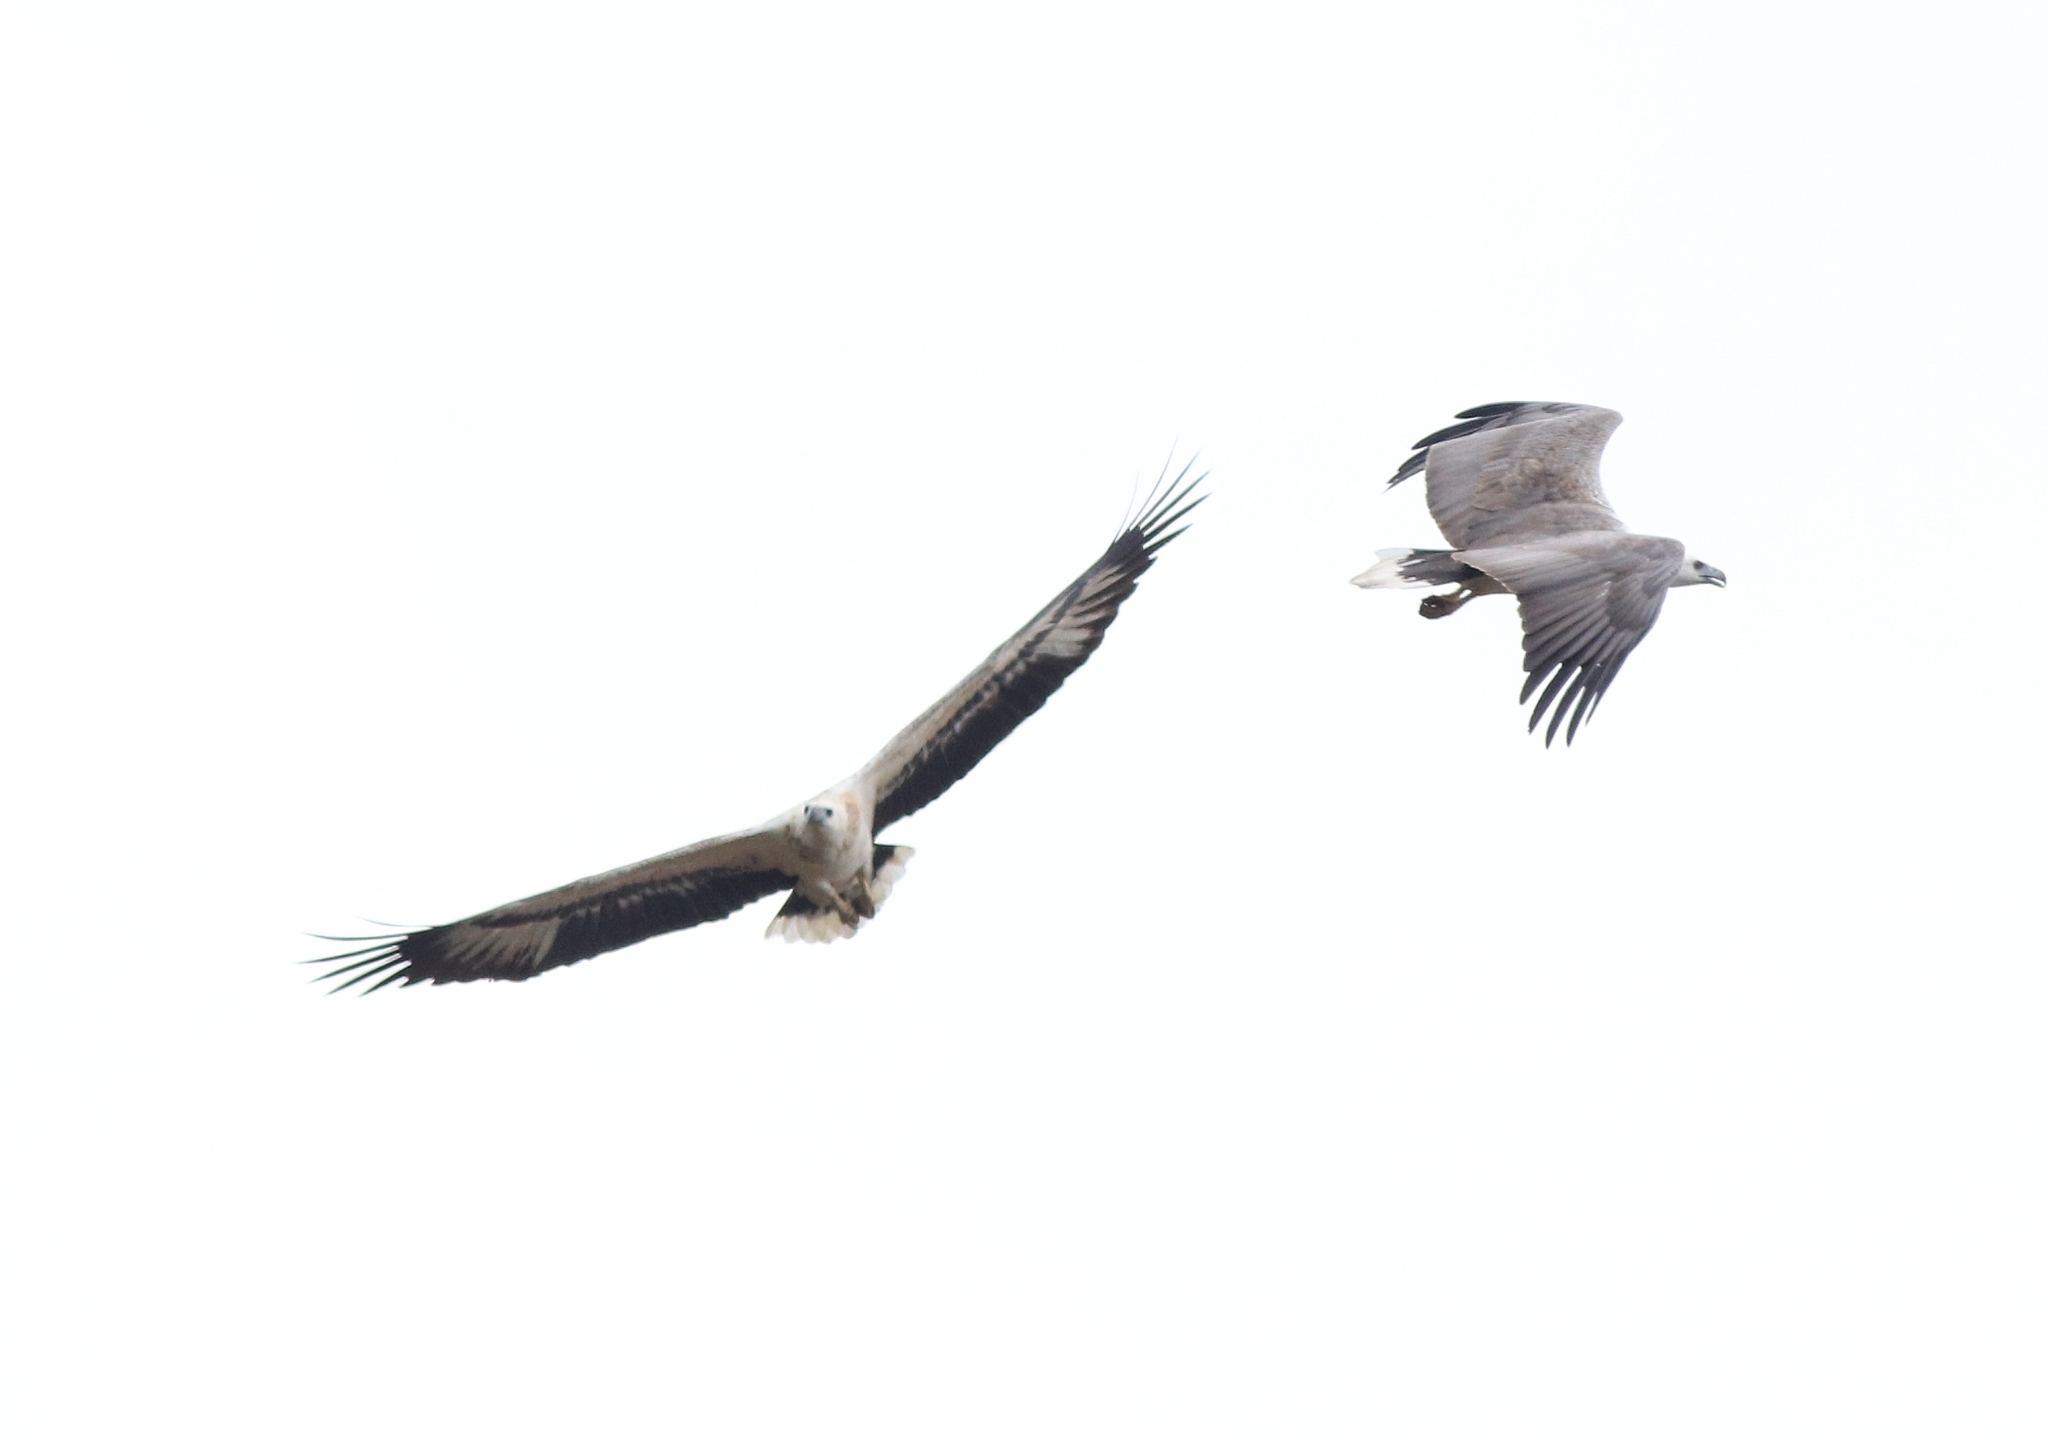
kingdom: Animalia
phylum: Chordata
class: Aves
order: Accipitriformes
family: Accipitridae
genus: Haliaeetus
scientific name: Haliaeetus leucogaster
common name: White-bellied sea eagle
